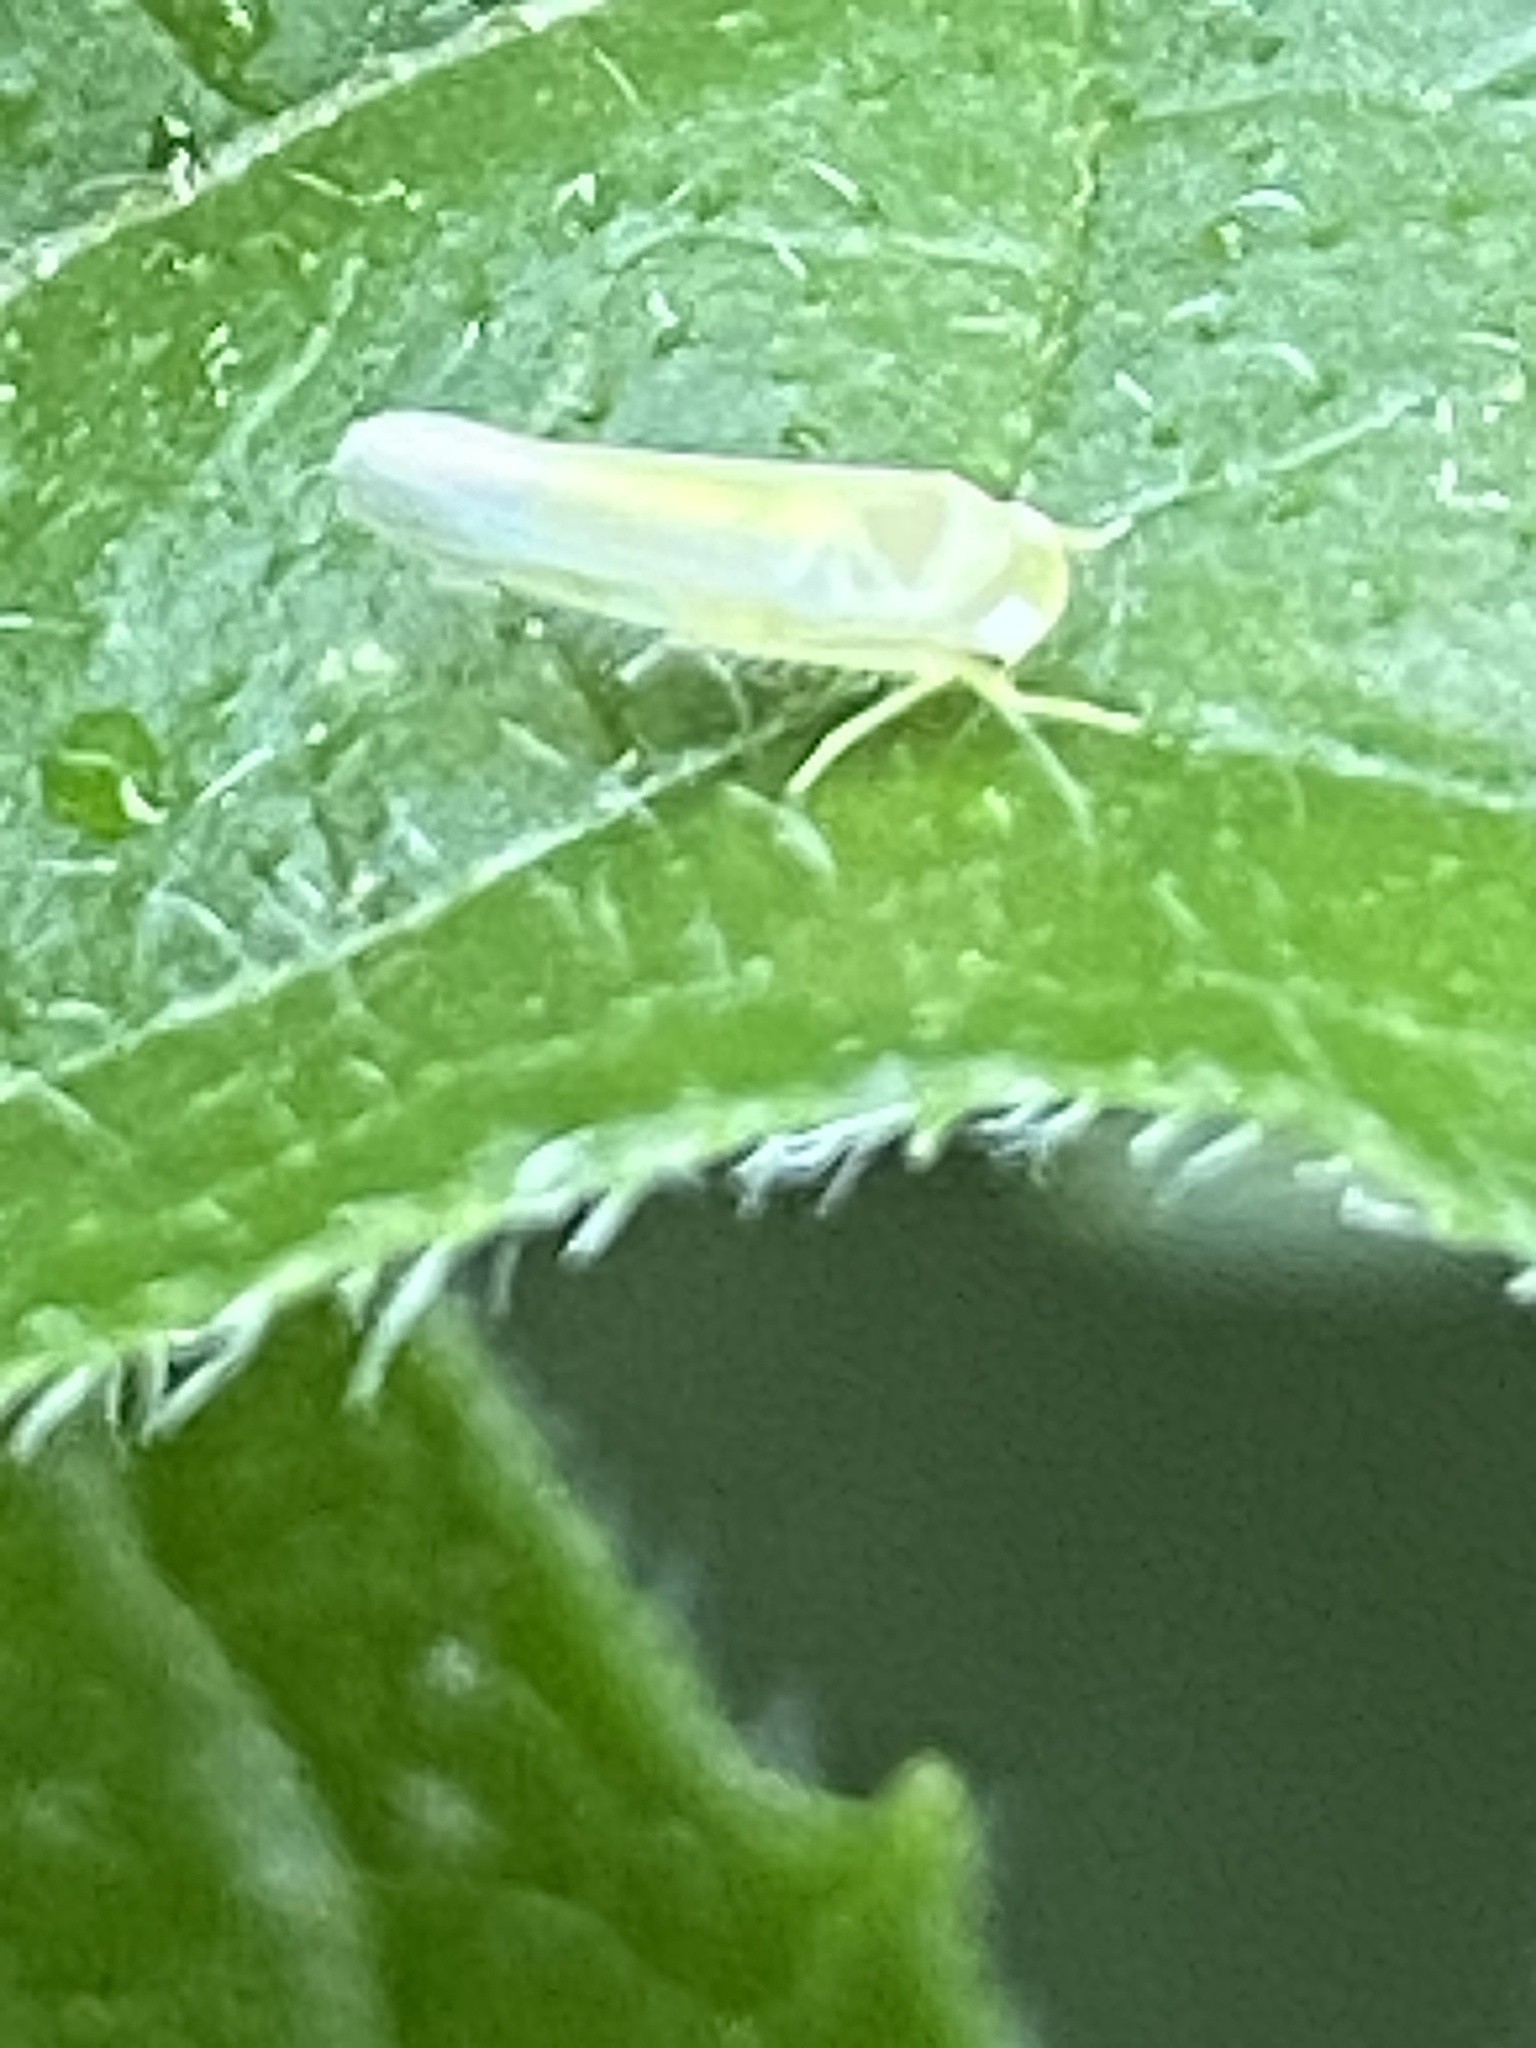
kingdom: Animalia
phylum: Arthropoda
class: Insecta
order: Hemiptera
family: Cicadellidae
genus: Kyboasca
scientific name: Kyboasca maligna
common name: Apple leafhopper
